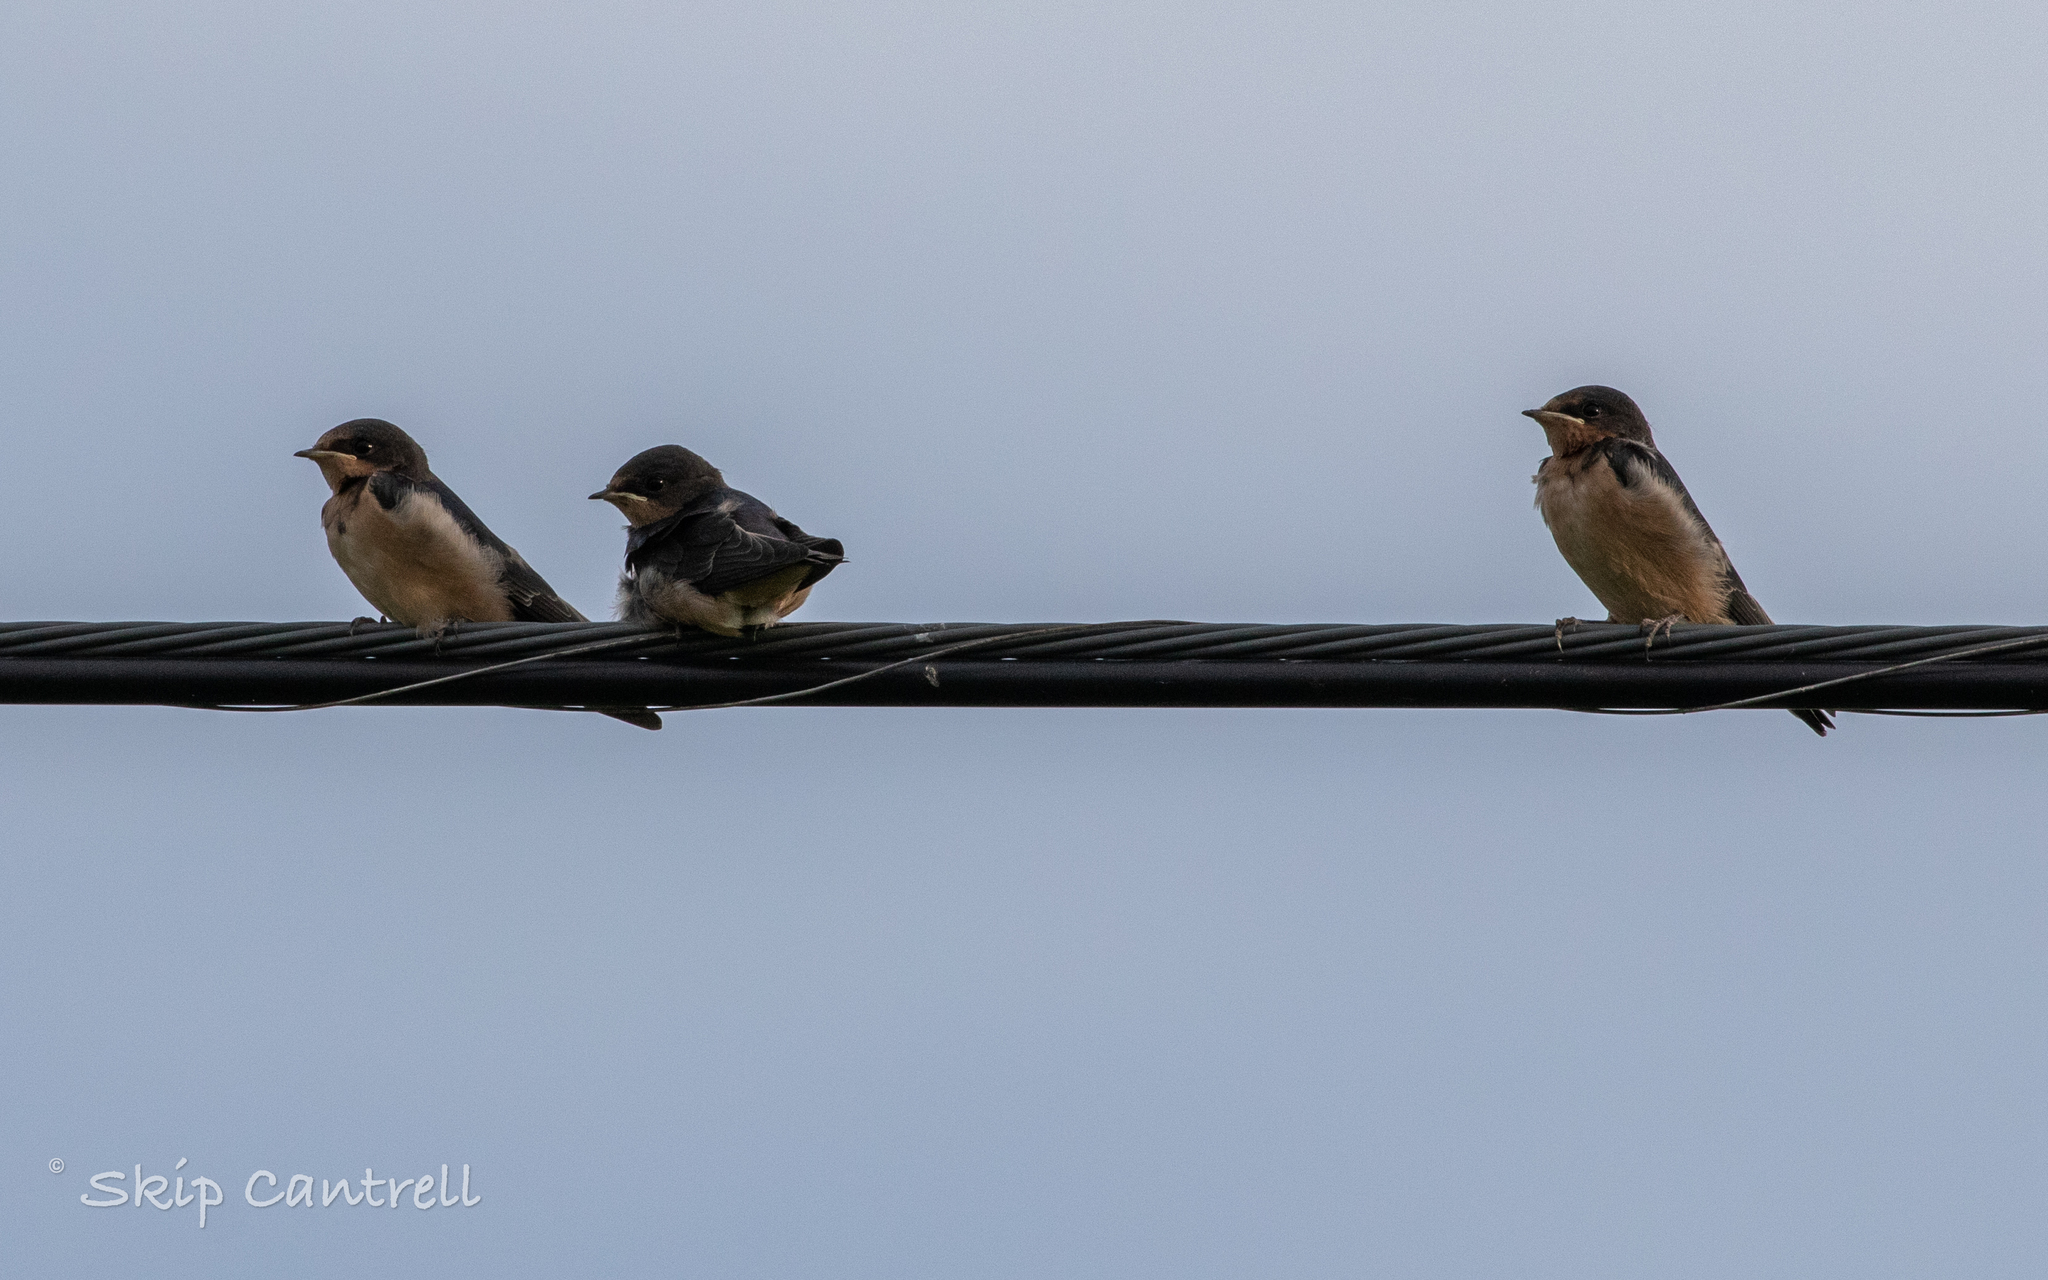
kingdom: Animalia
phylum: Chordata
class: Aves
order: Passeriformes
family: Hirundinidae
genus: Hirundo
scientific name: Hirundo rustica
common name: Barn swallow
